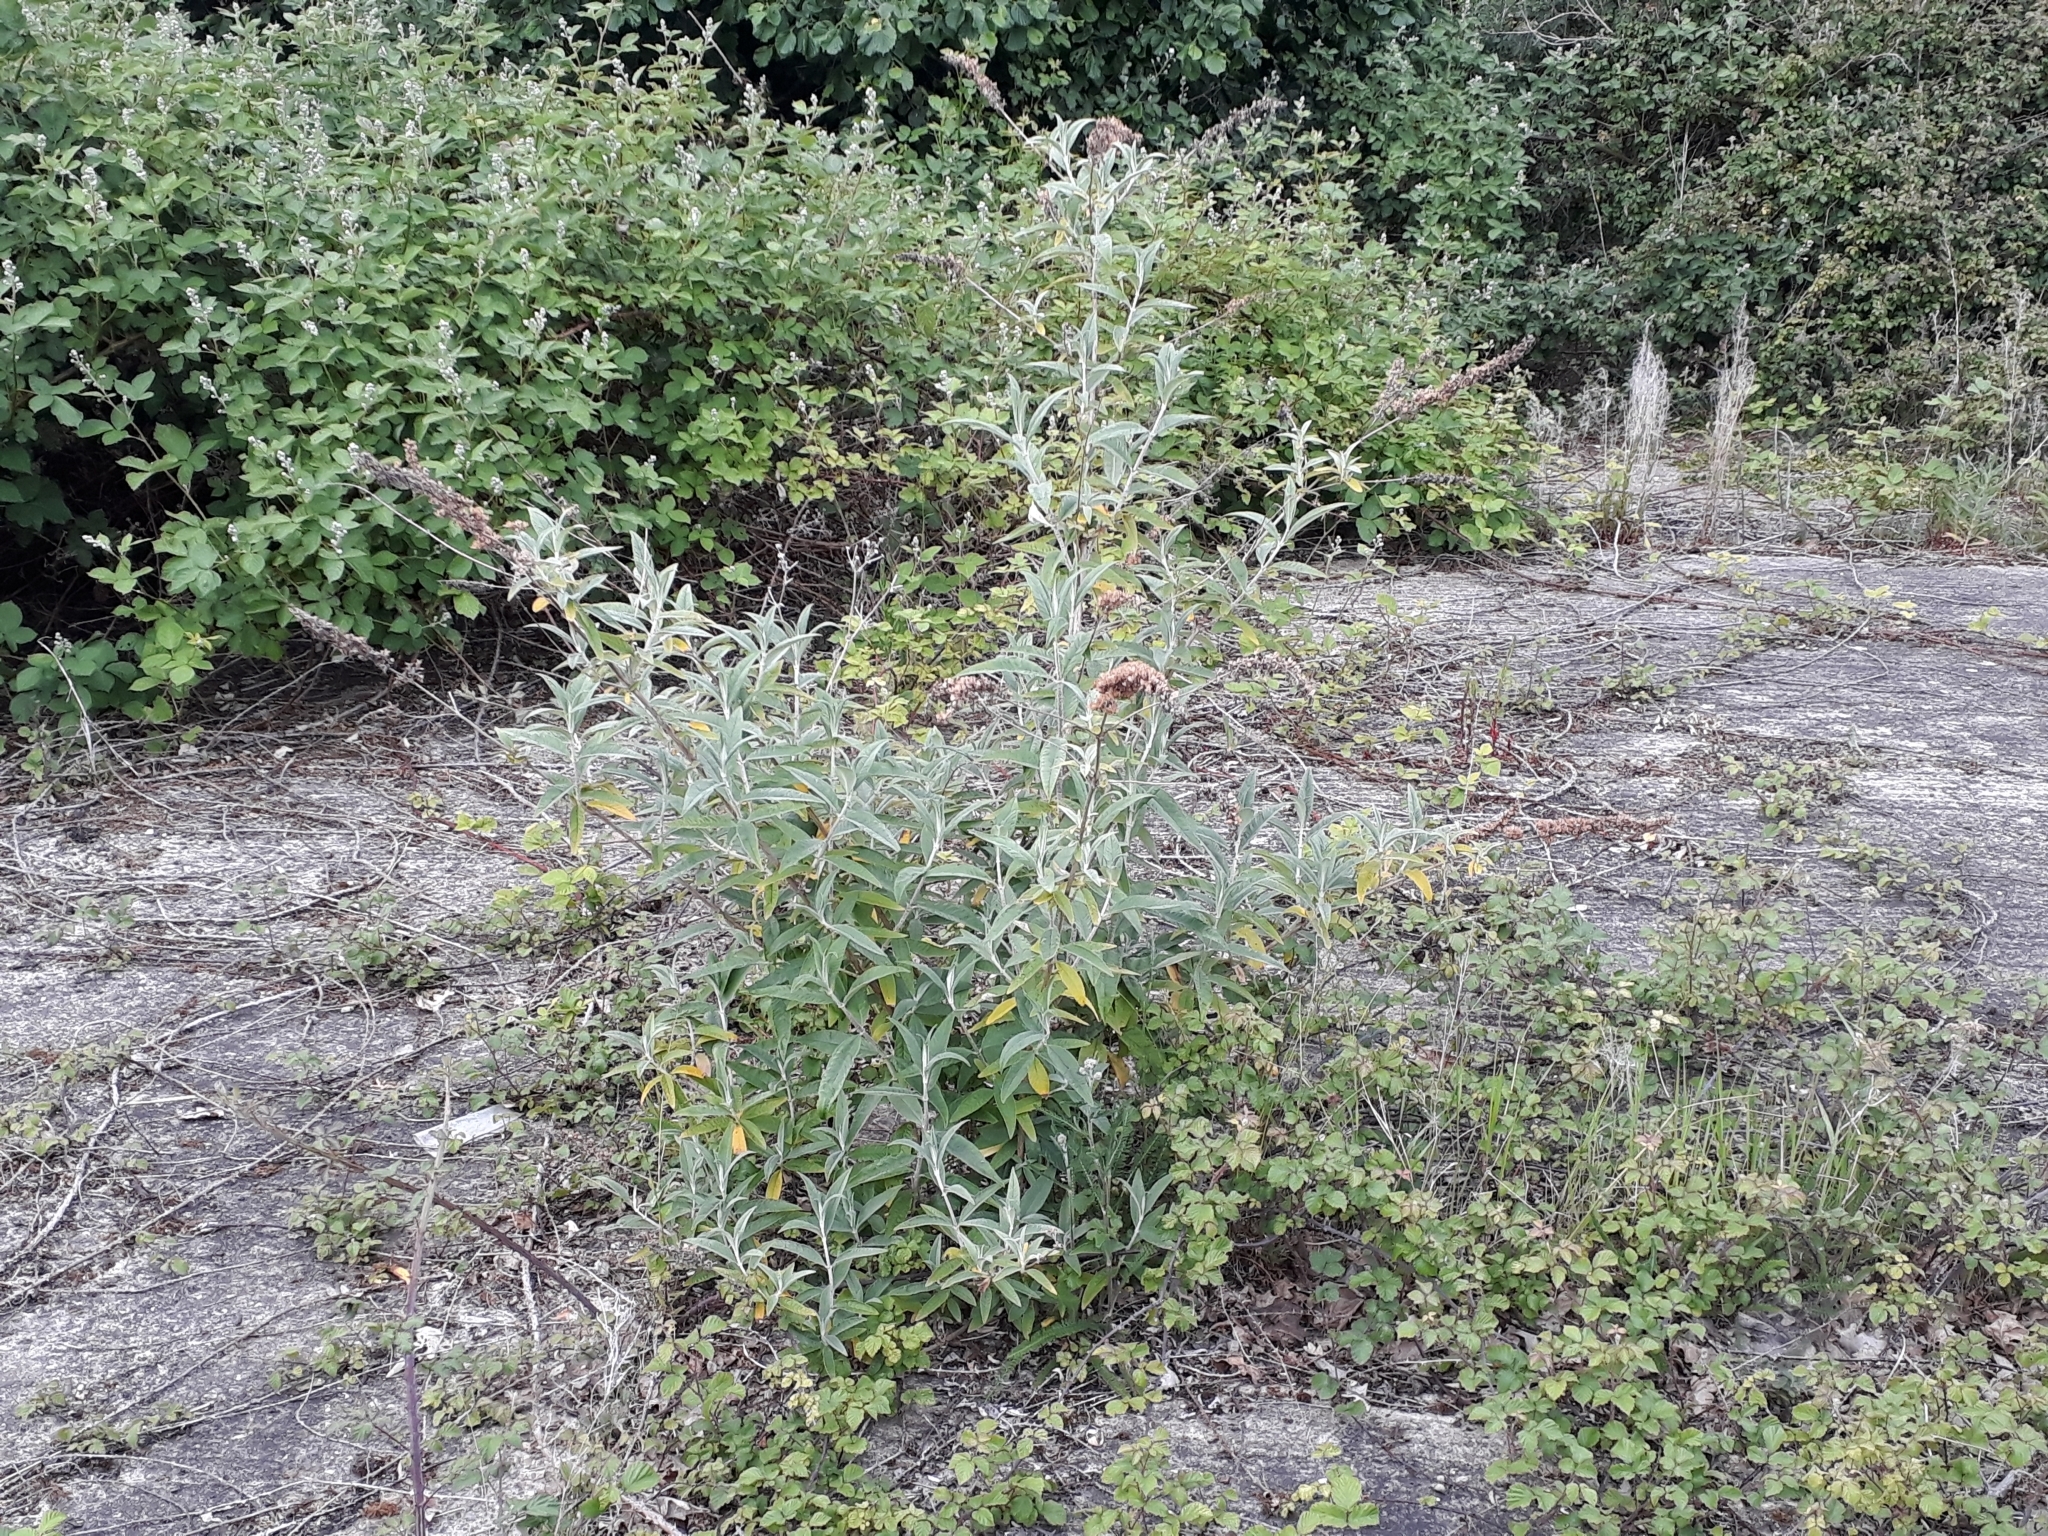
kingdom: Plantae
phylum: Tracheophyta
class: Magnoliopsida
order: Lamiales
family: Scrophulariaceae
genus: Buddleja
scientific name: Buddleja davidii
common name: Butterfly-bush
